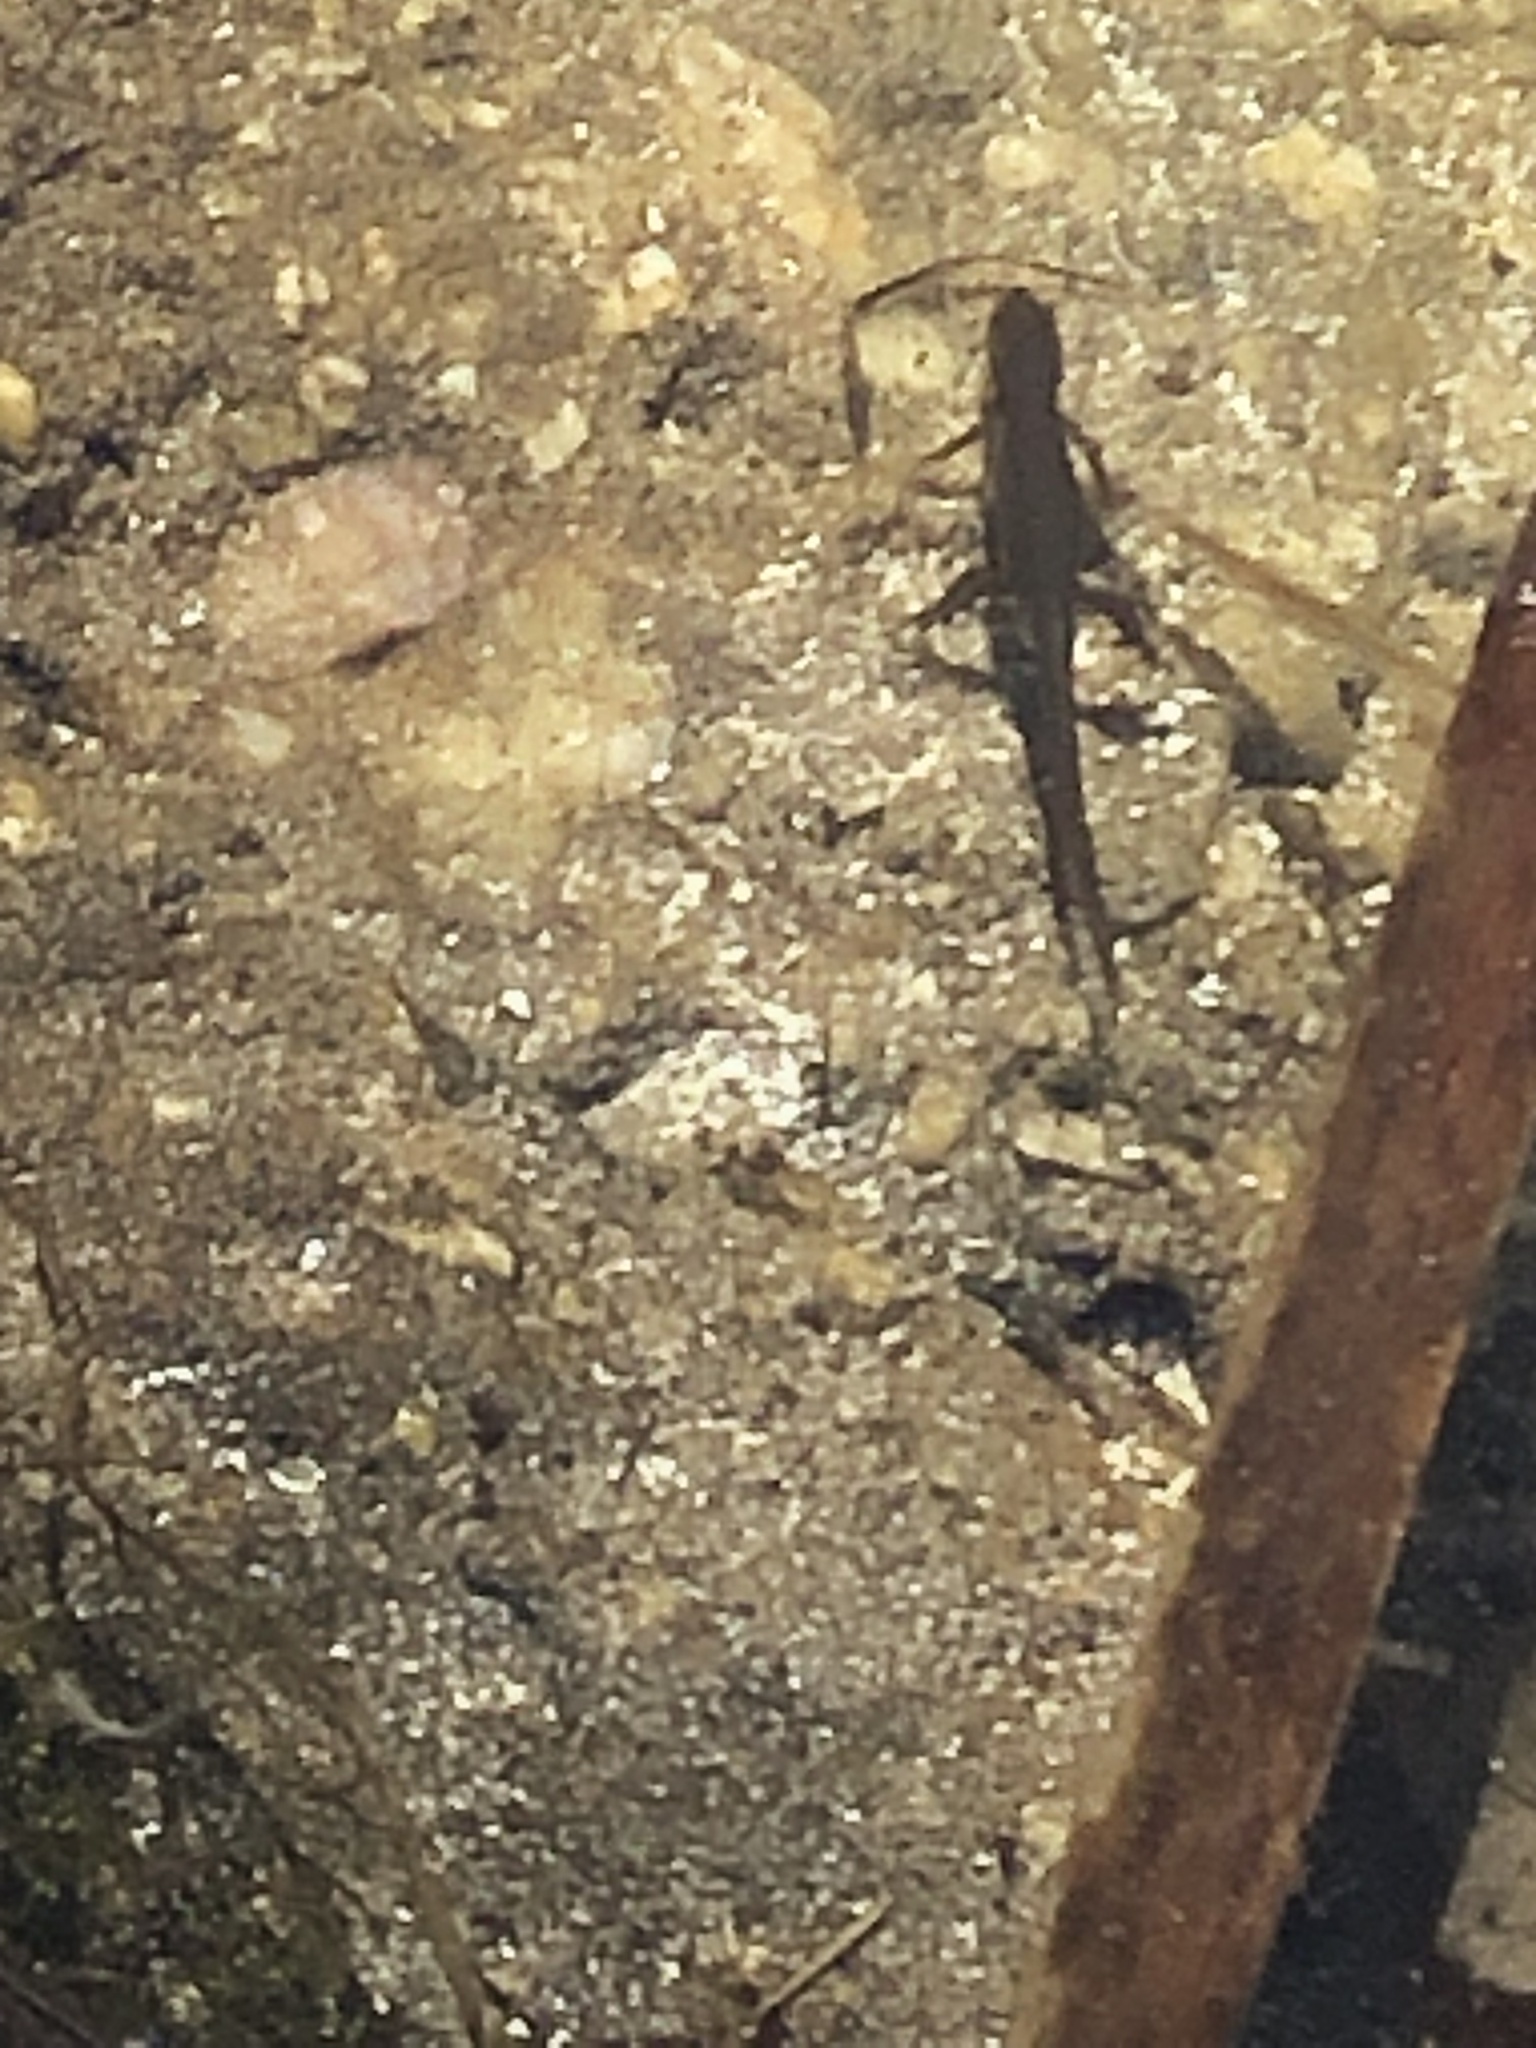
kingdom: Animalia
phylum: Chordata
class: Amphibia
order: Caudata
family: Salamandridae
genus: Notophthalmus
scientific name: Notophthalmus viridescens
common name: Eastern newt
